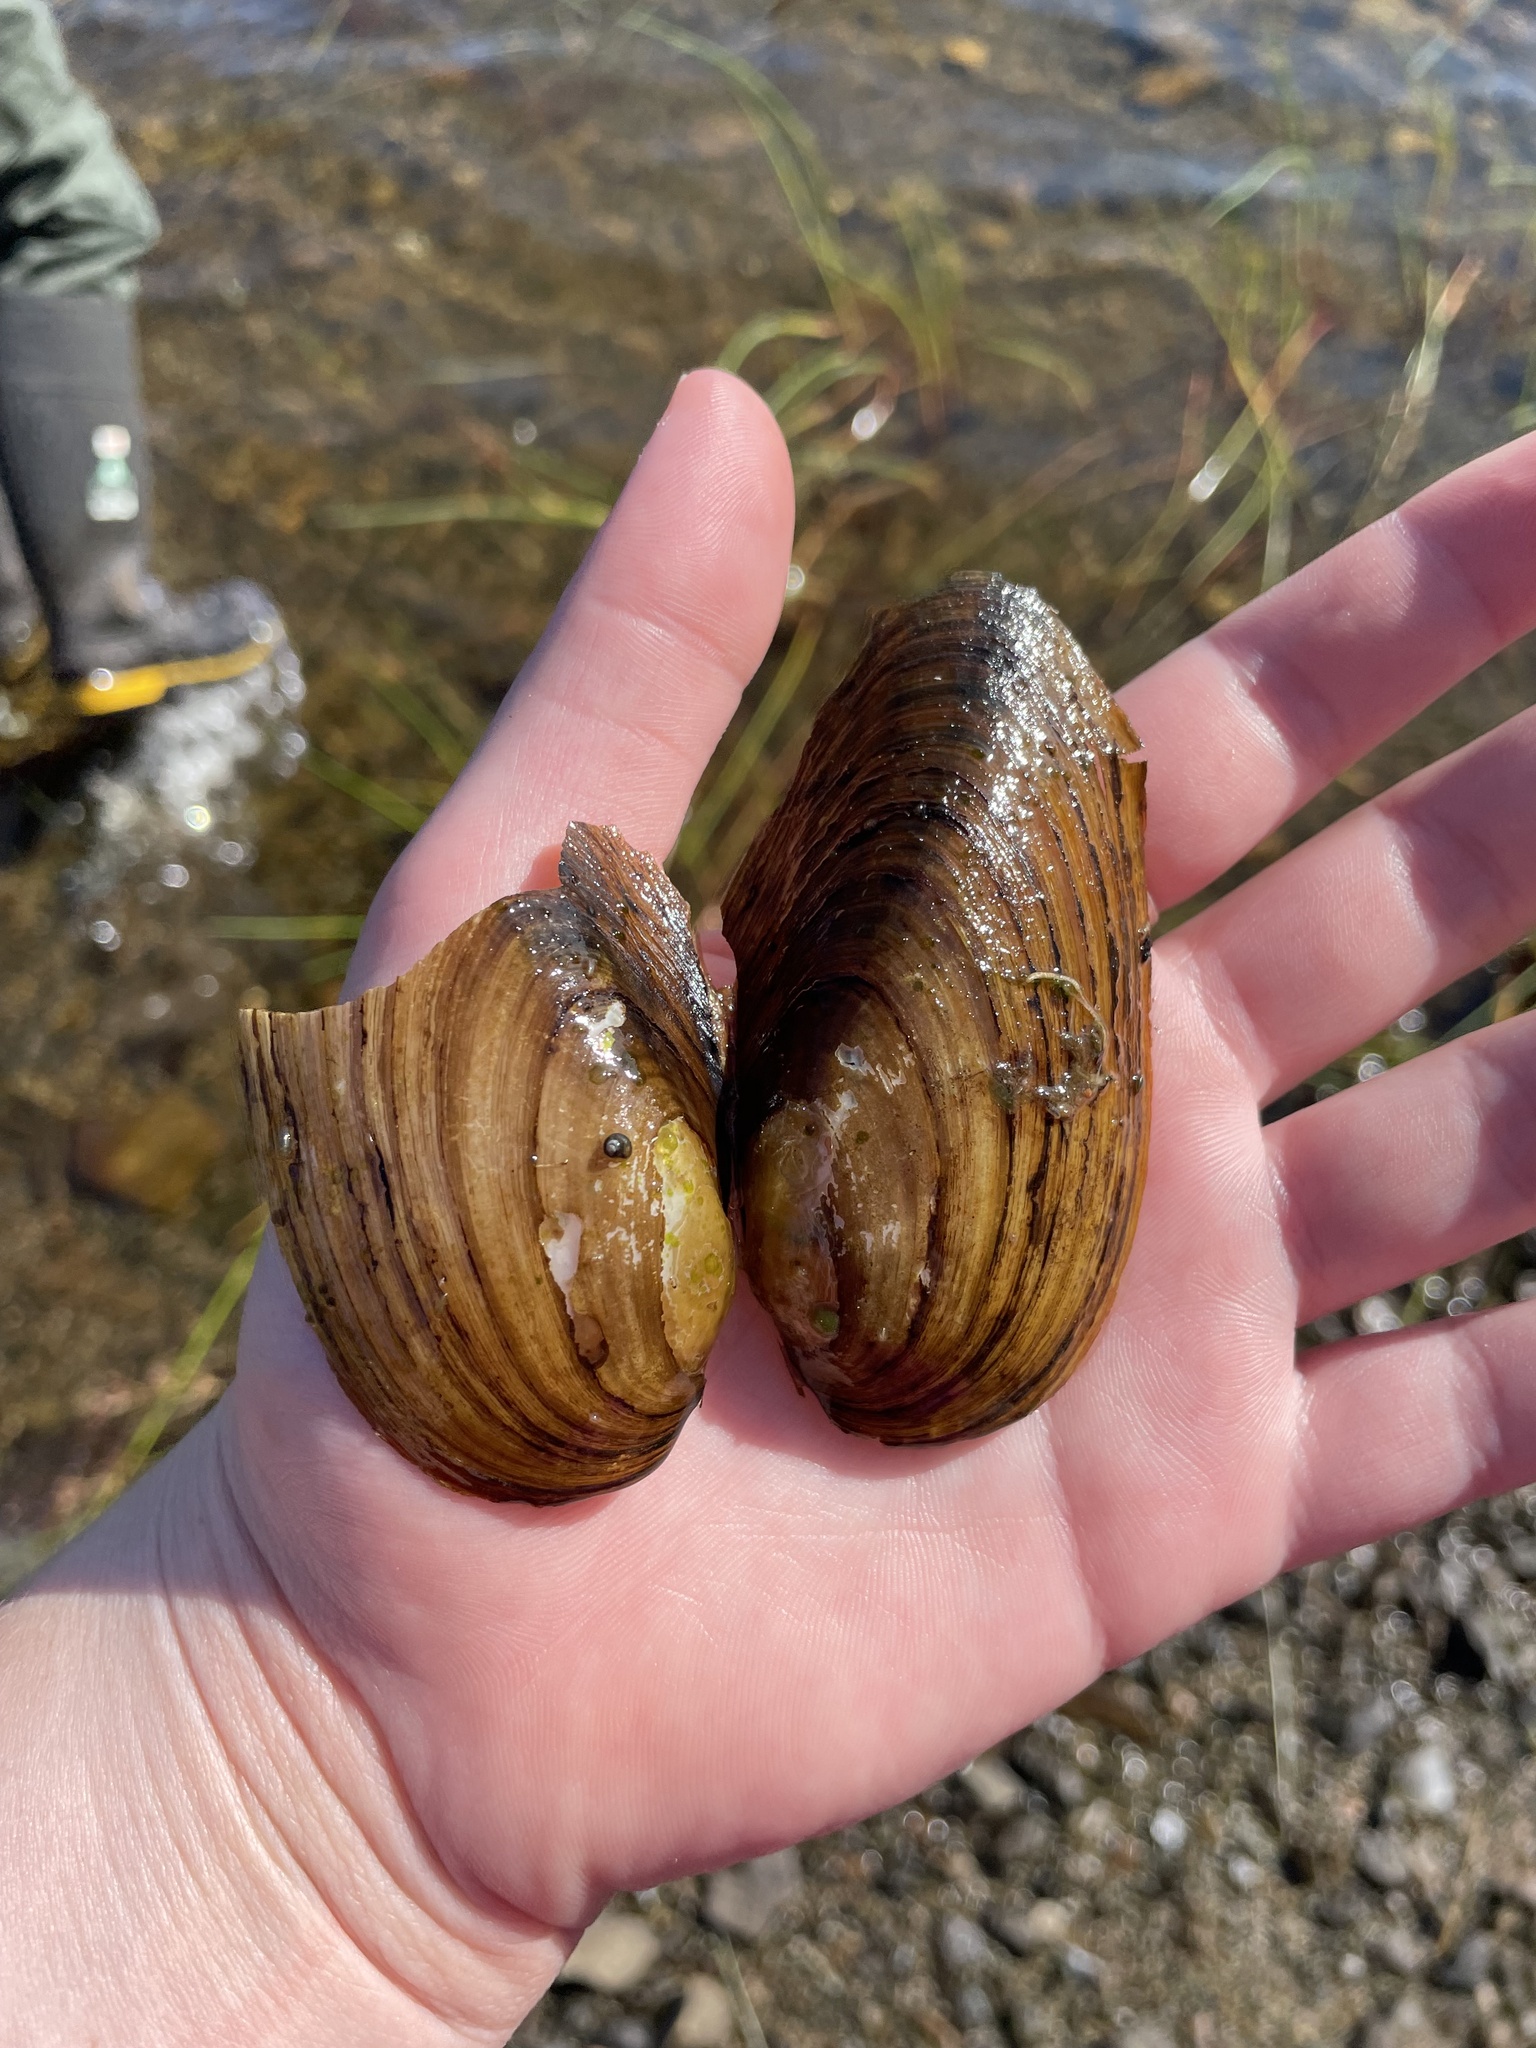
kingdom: Animalia
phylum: Mollusca
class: Bivalvia
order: Unionida
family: Unionidae
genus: Pyganodon
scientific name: Pyganodon cataracta
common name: Eastern floater
